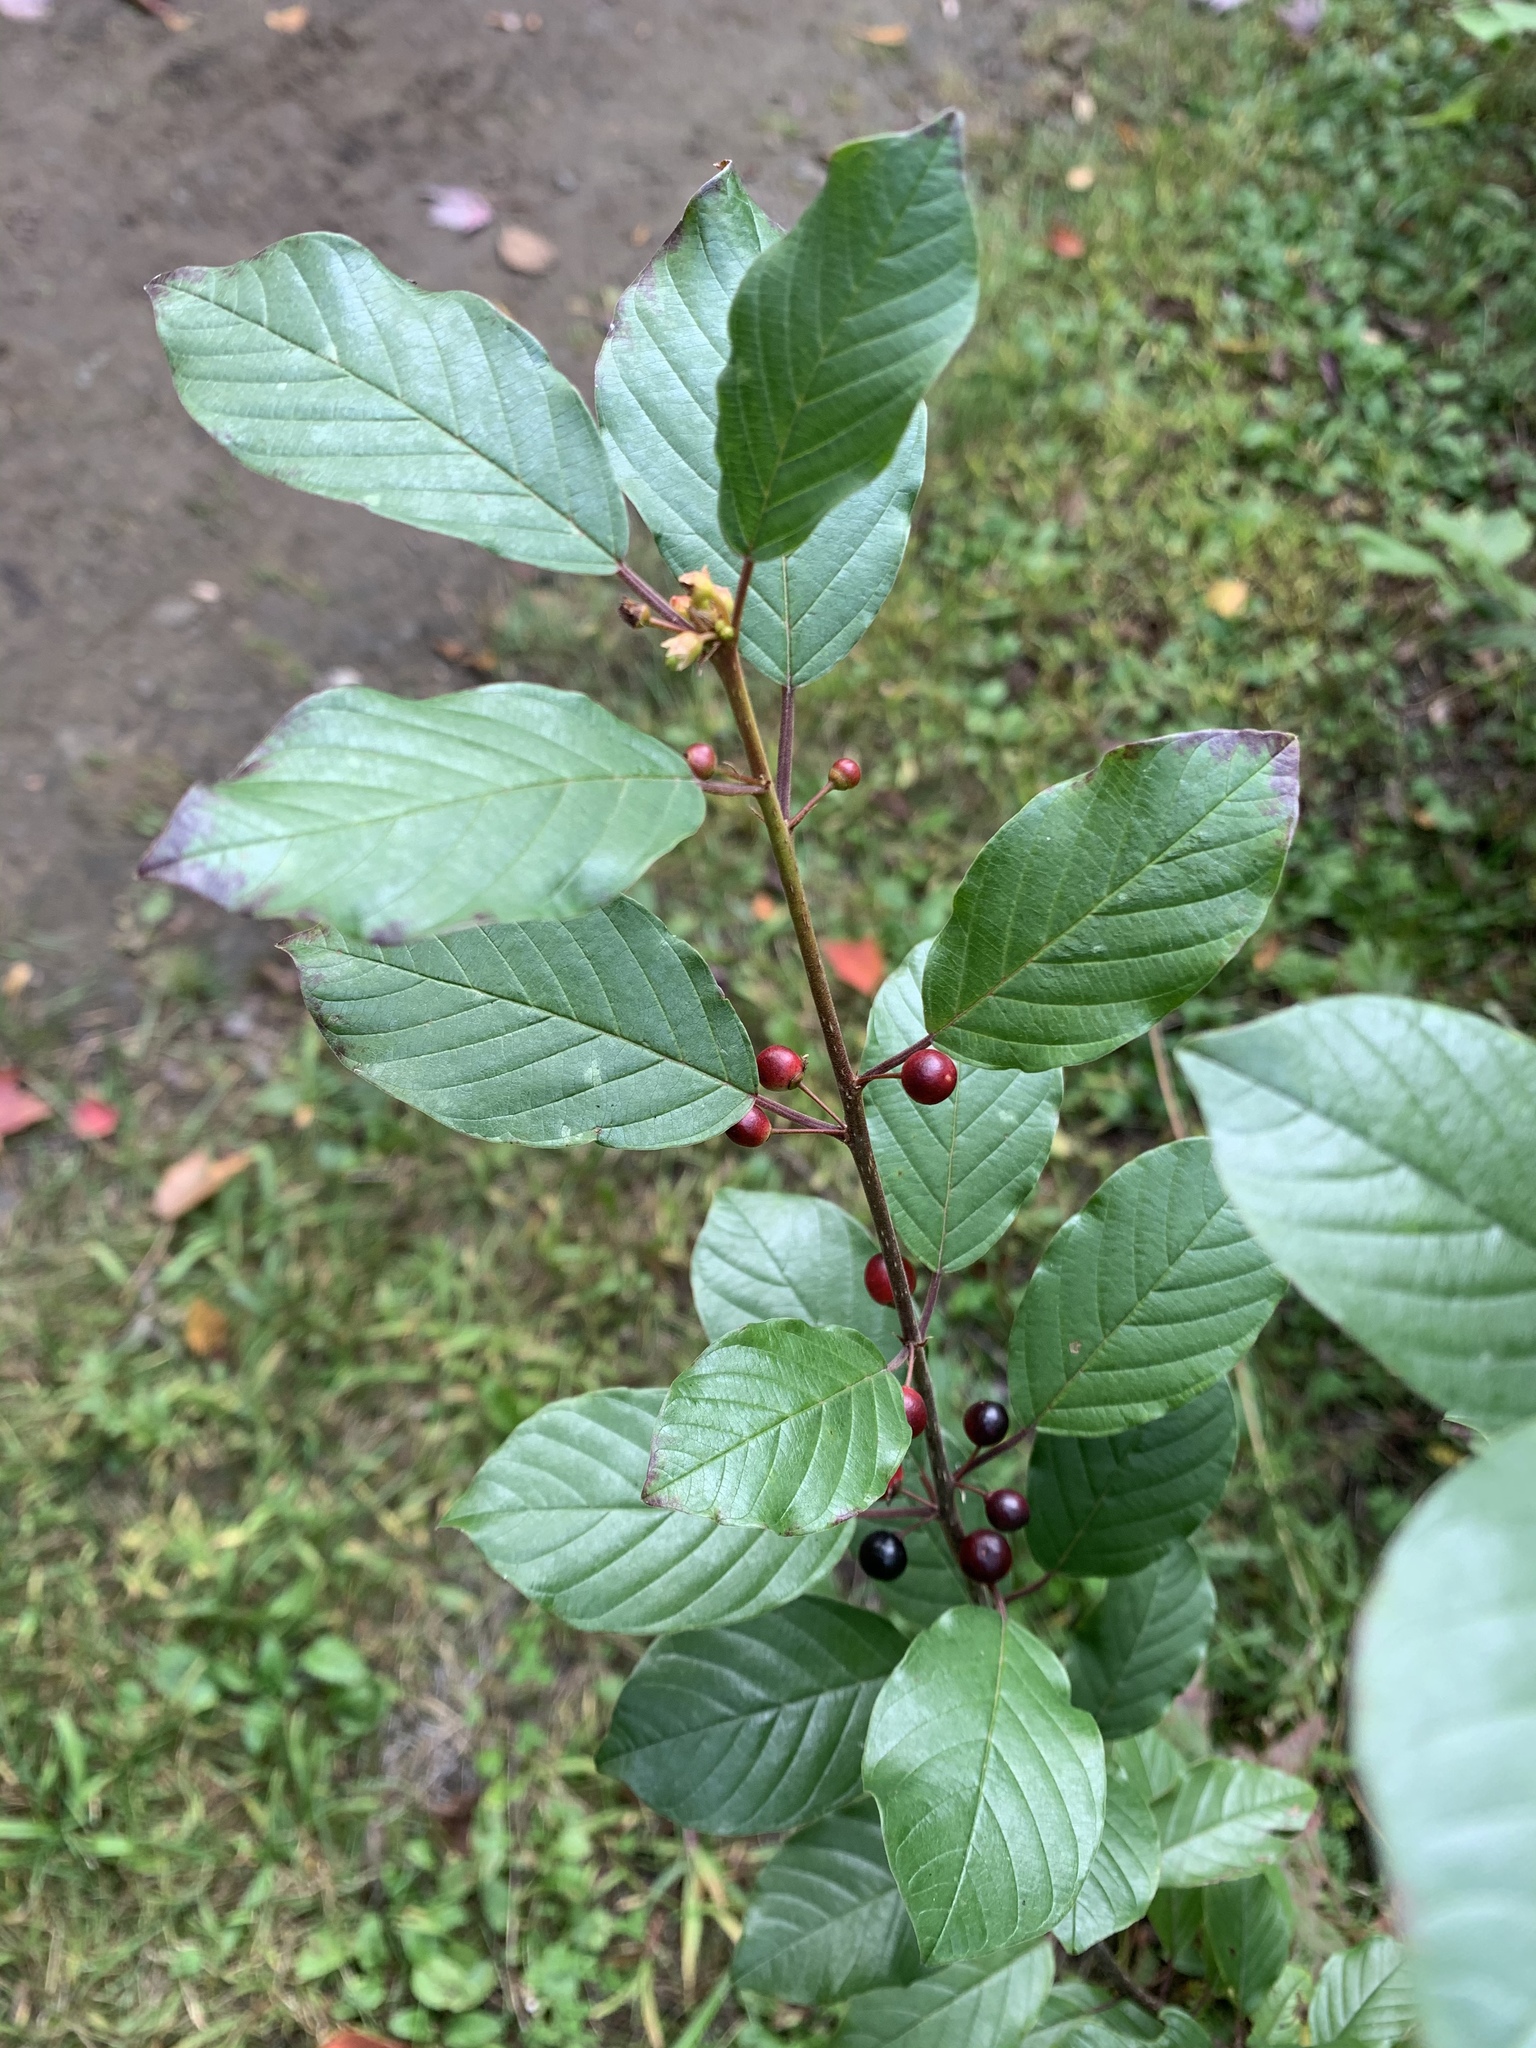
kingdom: Plantae
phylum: Tracheophyta
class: Magnoliopsida
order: Rosales
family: Rhamnaceae
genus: Frangula
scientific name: Frangula alnus
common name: Alder buckthorn
